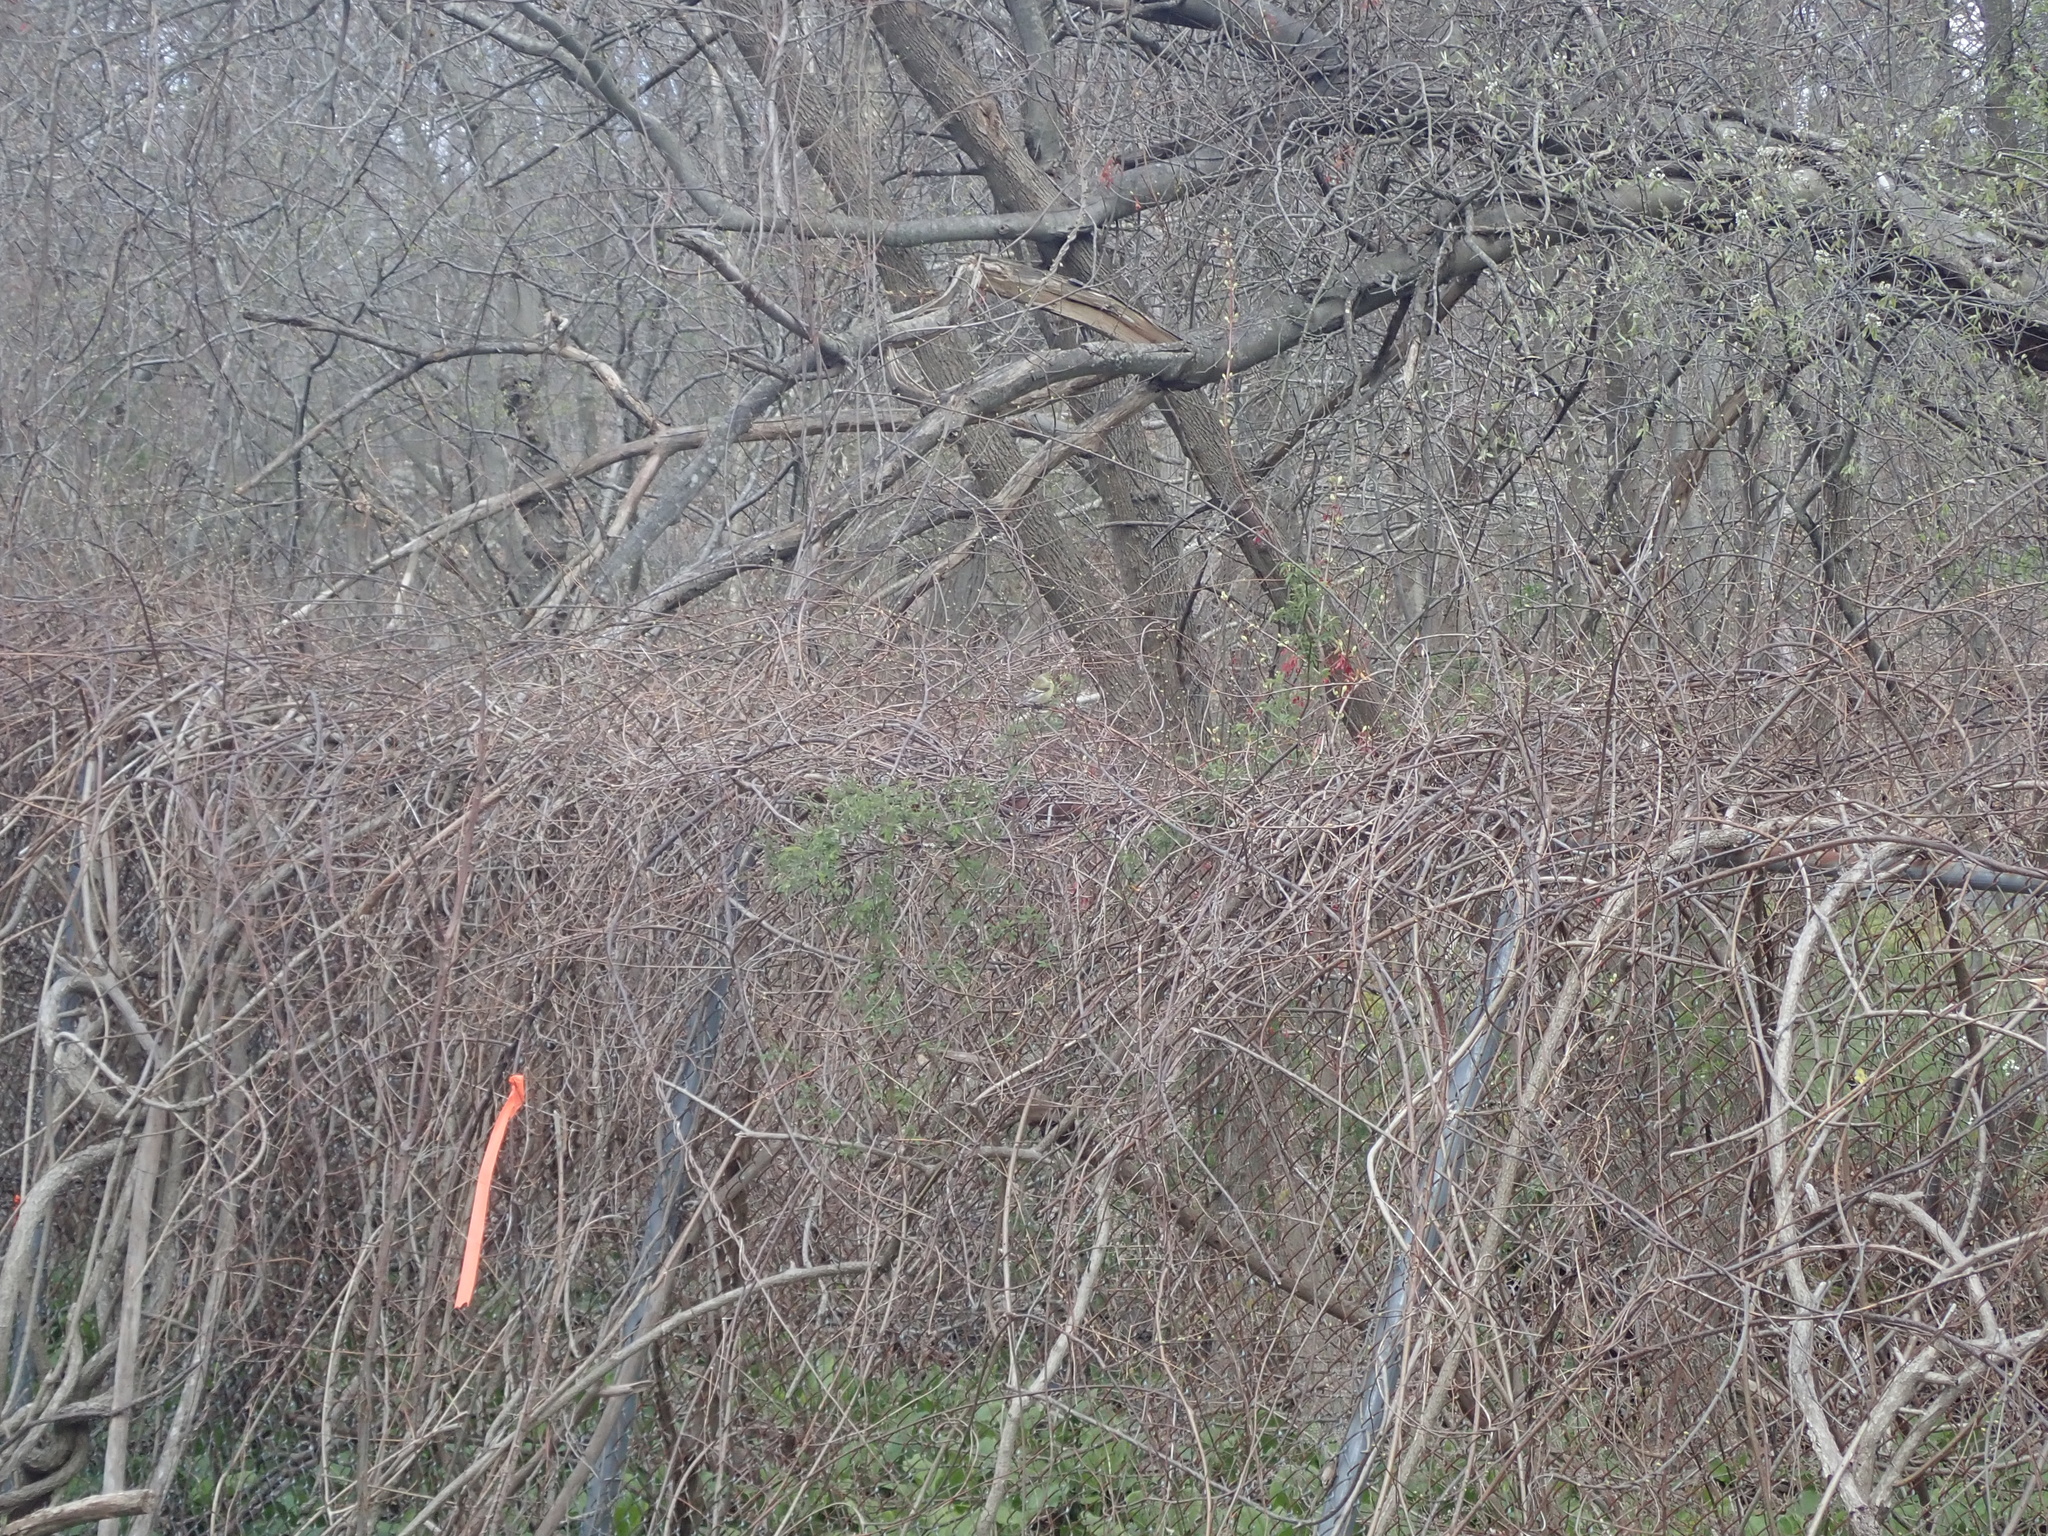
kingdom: Animalia
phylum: Chordata
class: Aves
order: Passeriformes
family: Fringillidae
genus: Spinus
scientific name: Spinus tristis
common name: American goldfinch
